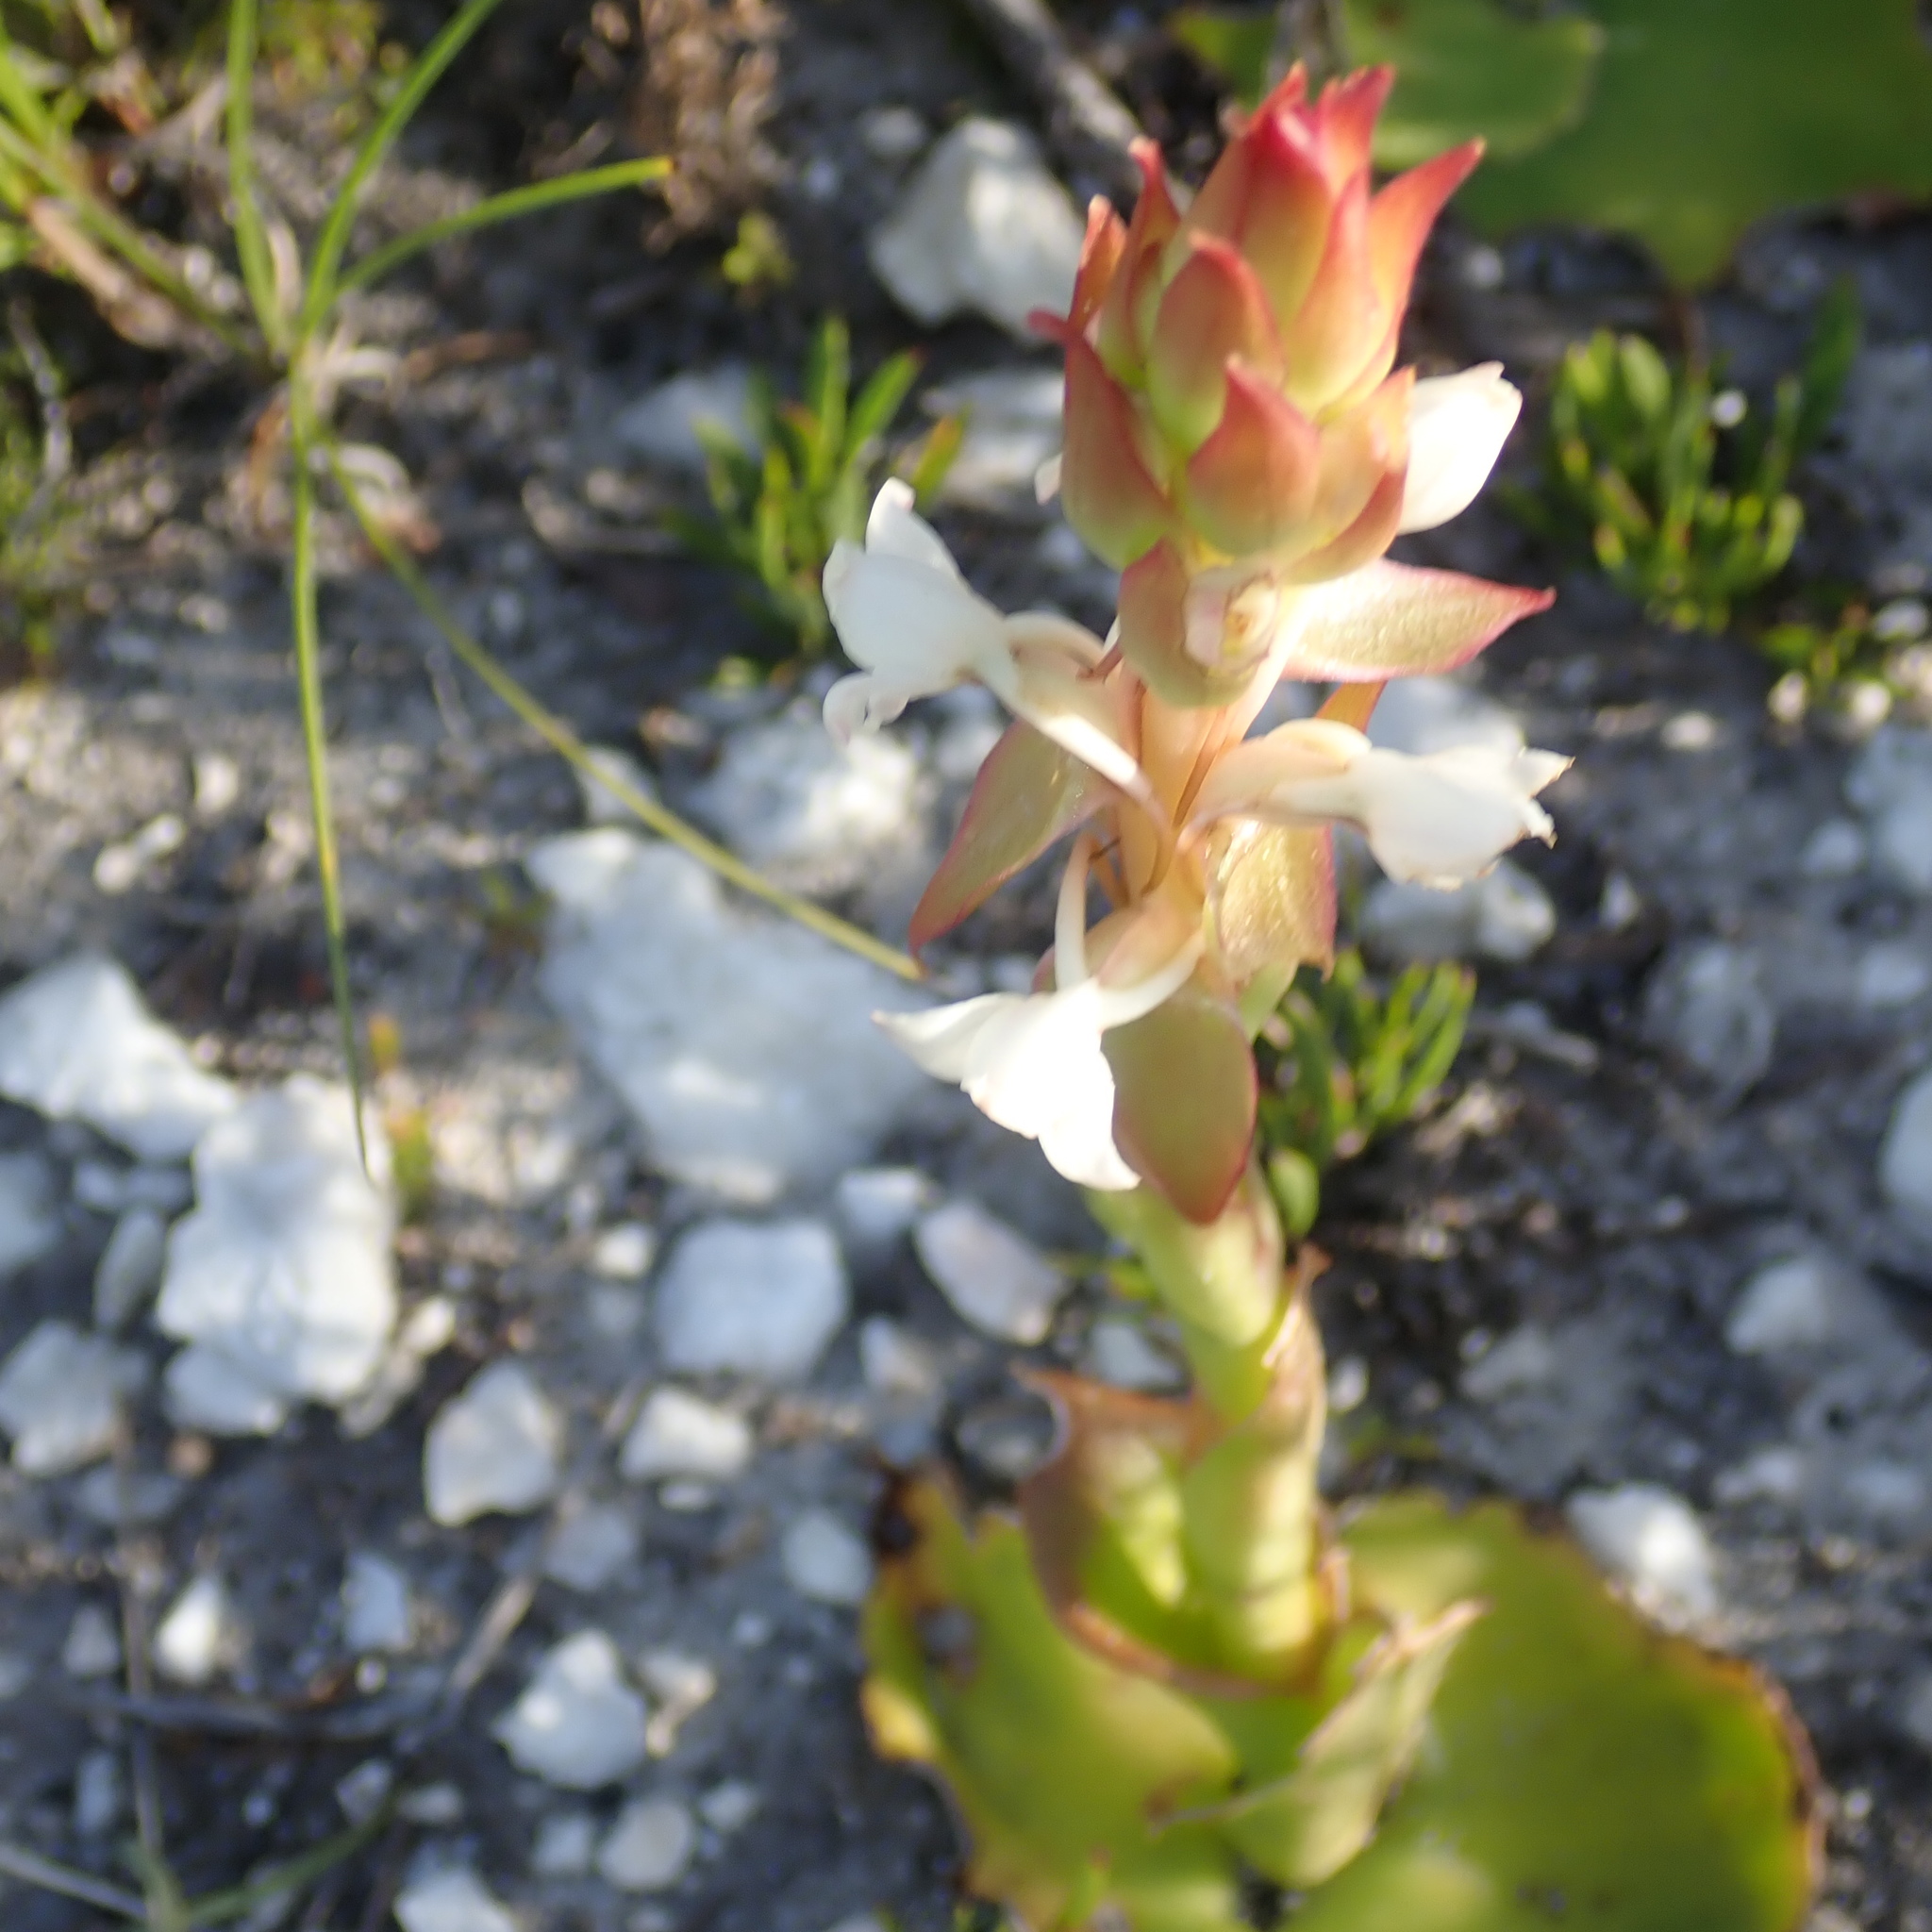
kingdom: Plantae
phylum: Tracheophyta
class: Liliopsida
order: Asparagales
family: Orchidaceae
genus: Satyrium
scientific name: Satyrium acuminatum
